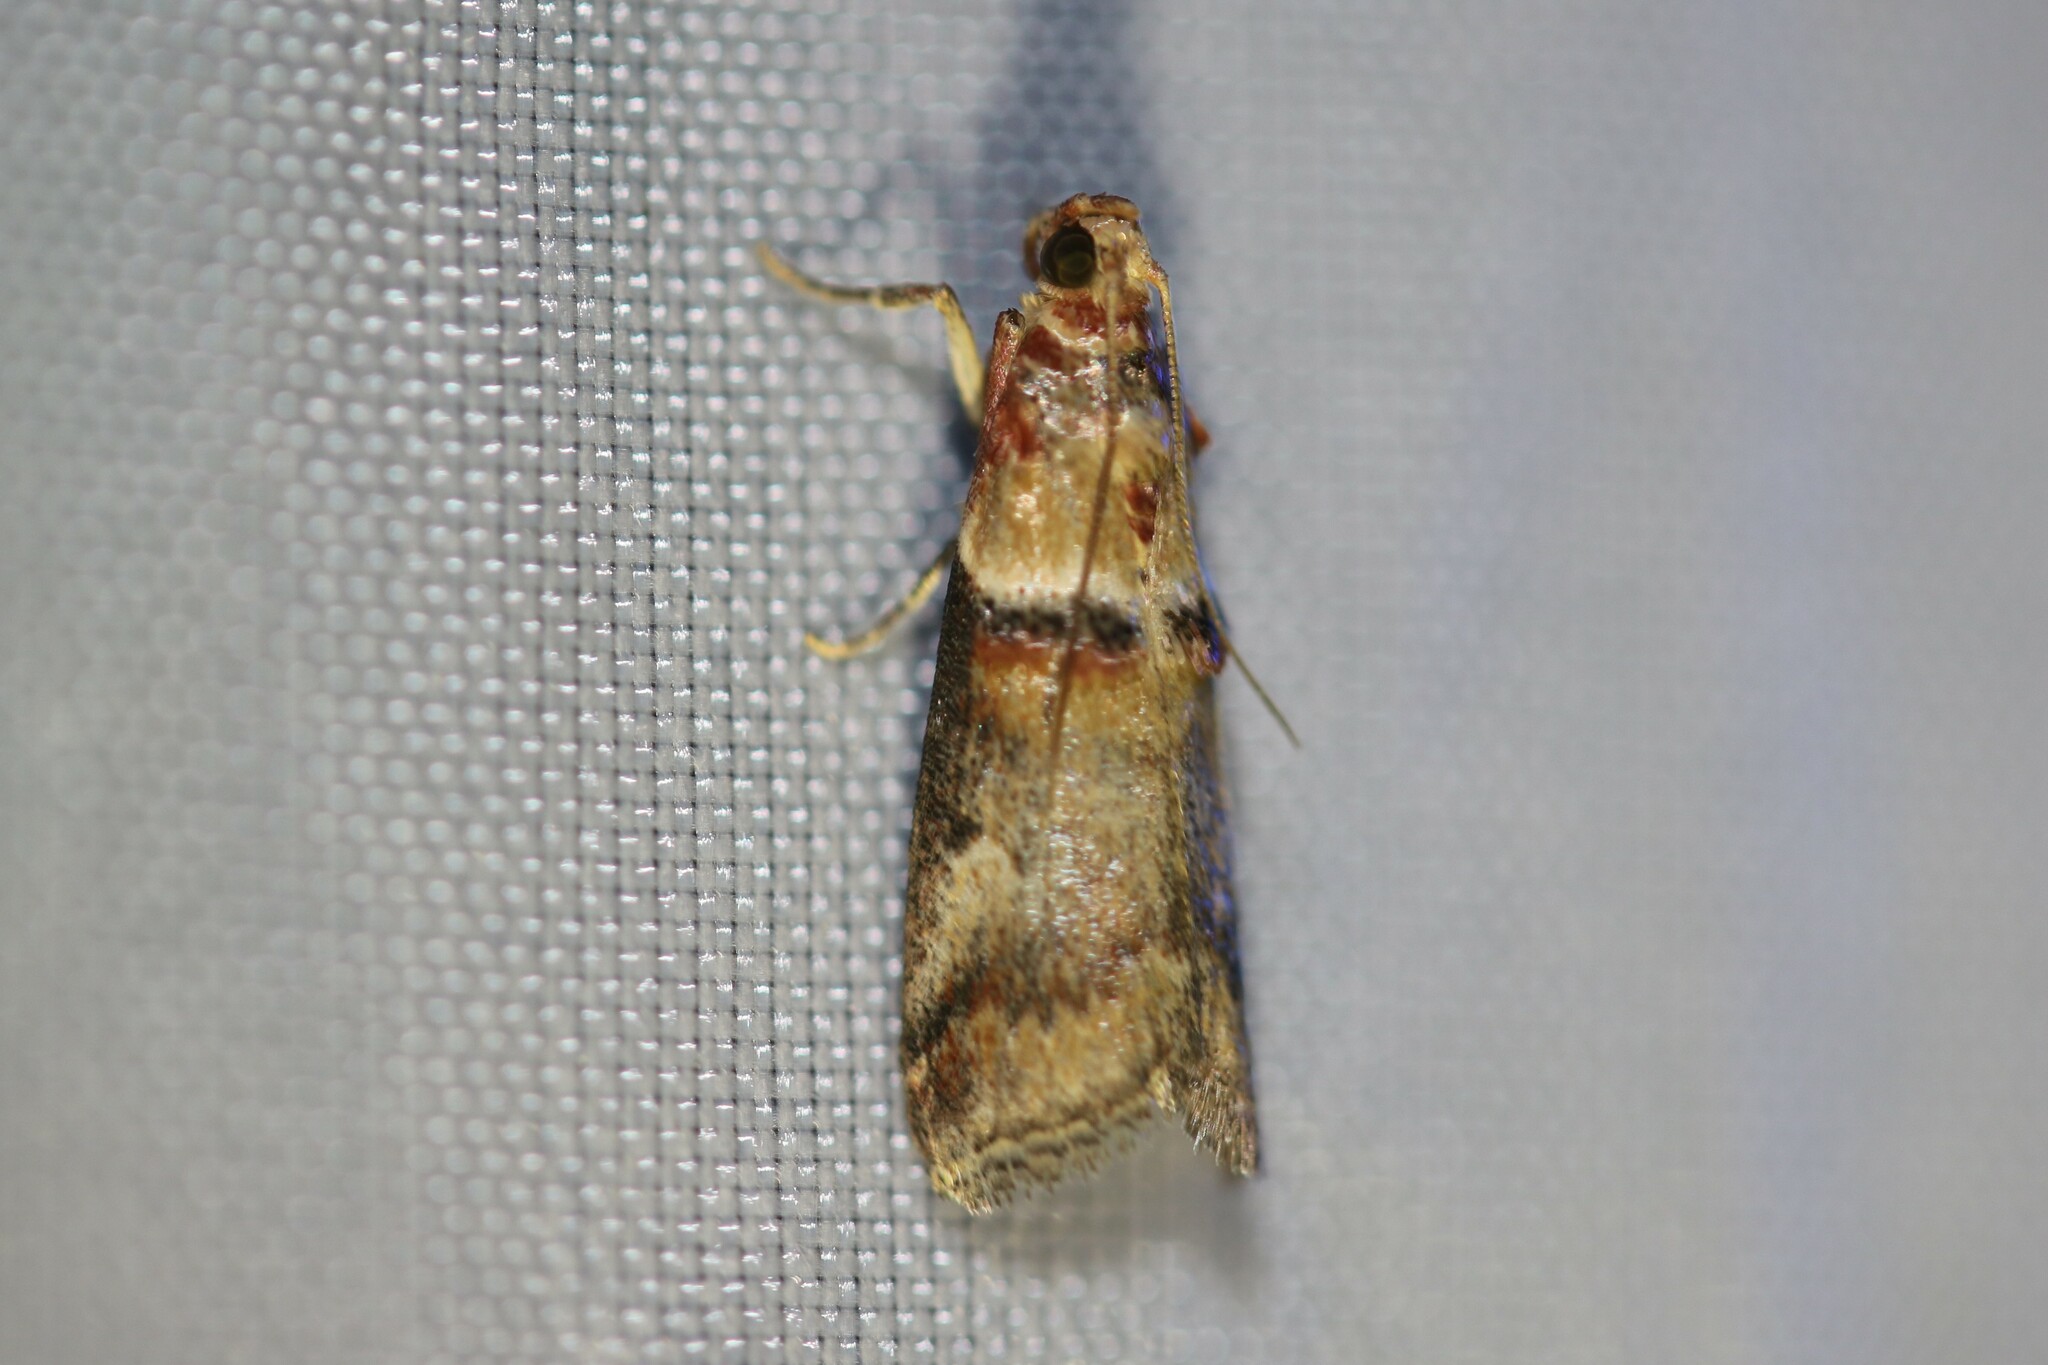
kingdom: Animalia
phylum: Arthropoda
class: Insecta
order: Lepidoptera
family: Pyralidae
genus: Acrobasis
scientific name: Acrobasis tumidana
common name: Scarce oak knot-horn
